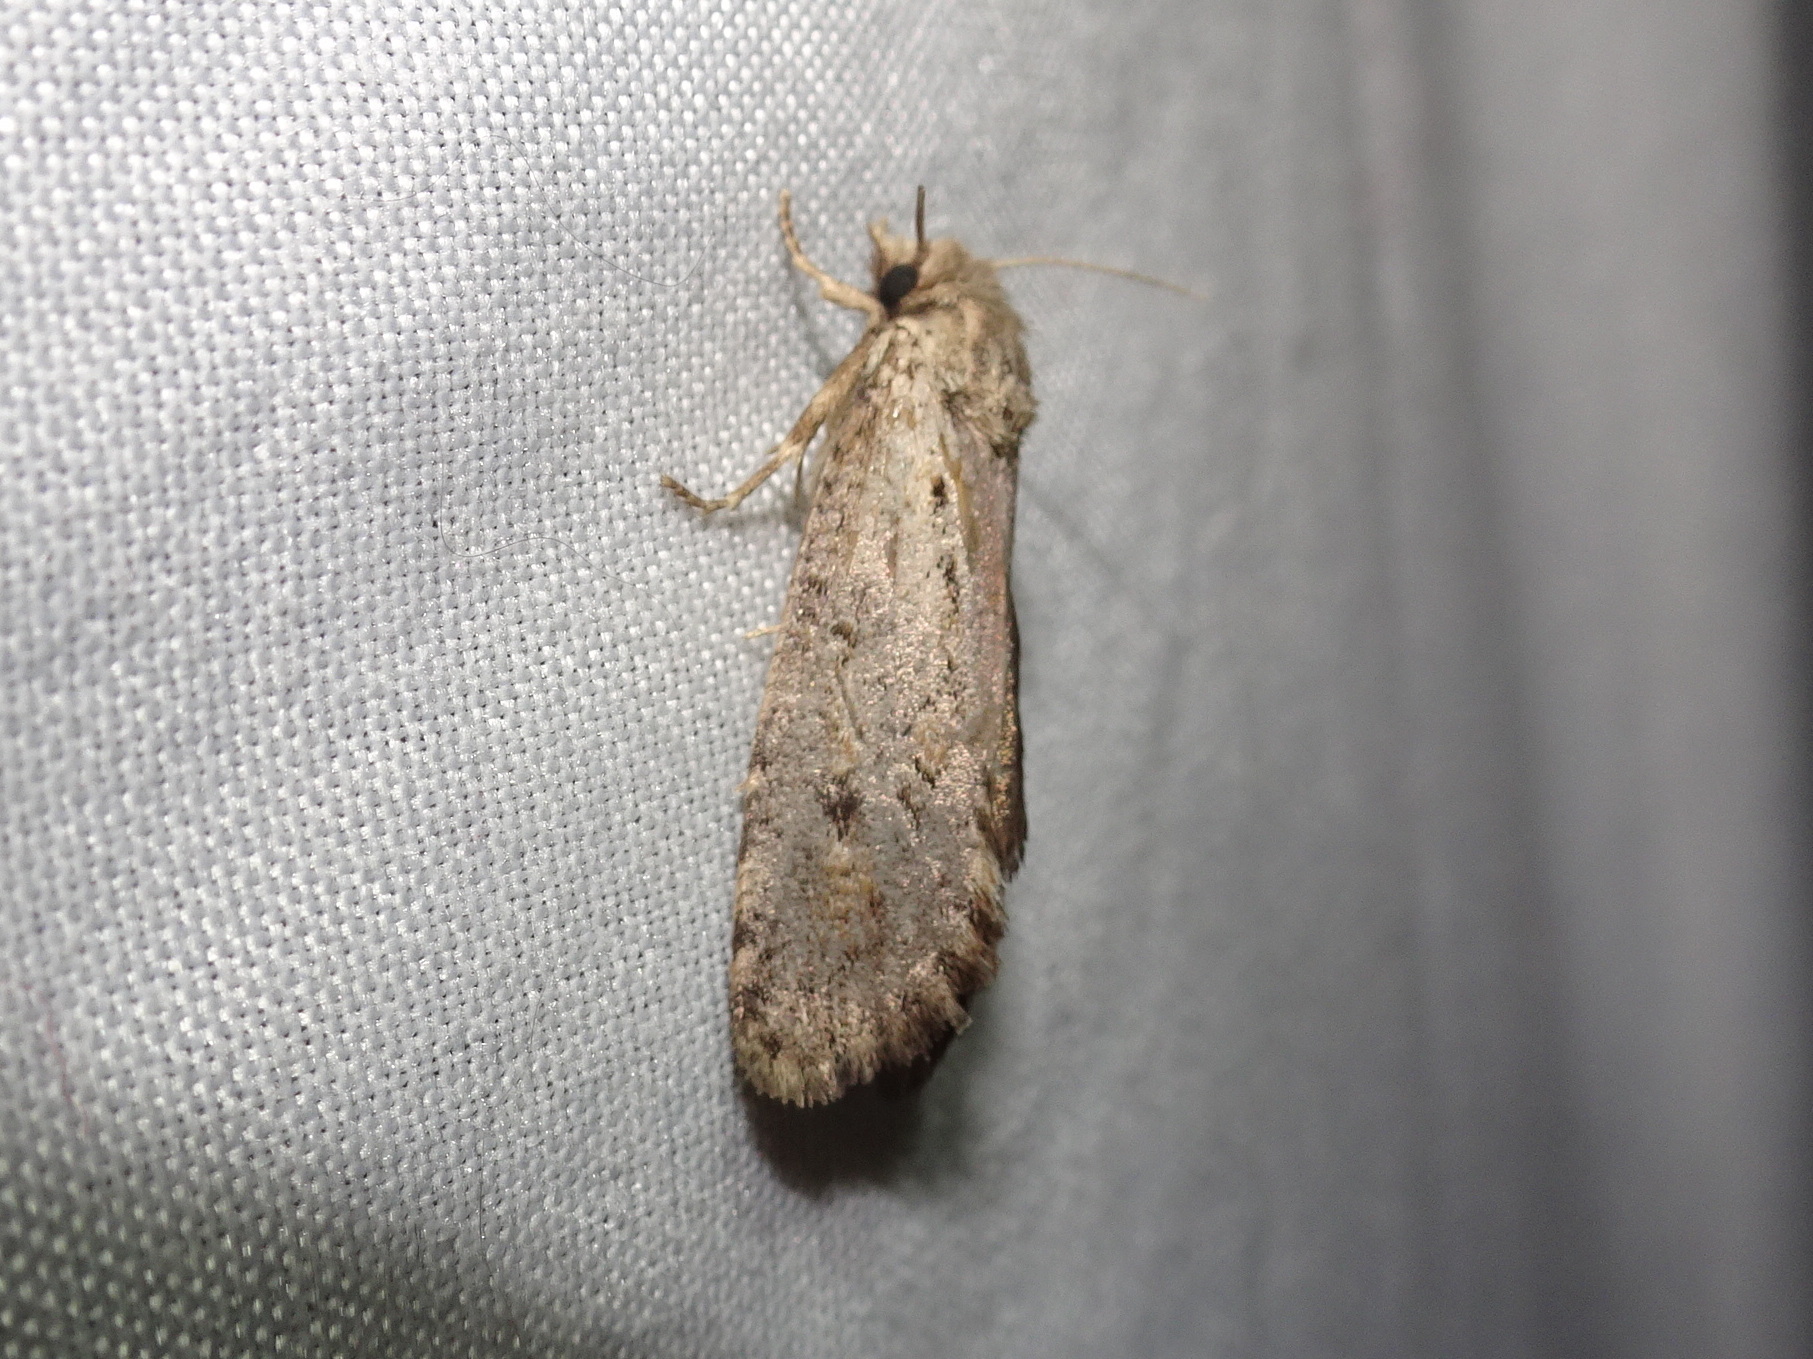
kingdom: Animalia
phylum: Arthropoda
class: Insecta
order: Lepidoptera
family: Tineidae
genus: Acrolophus
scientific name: Acrolophus popeanella
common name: Clemens' grass tubeworm moth
